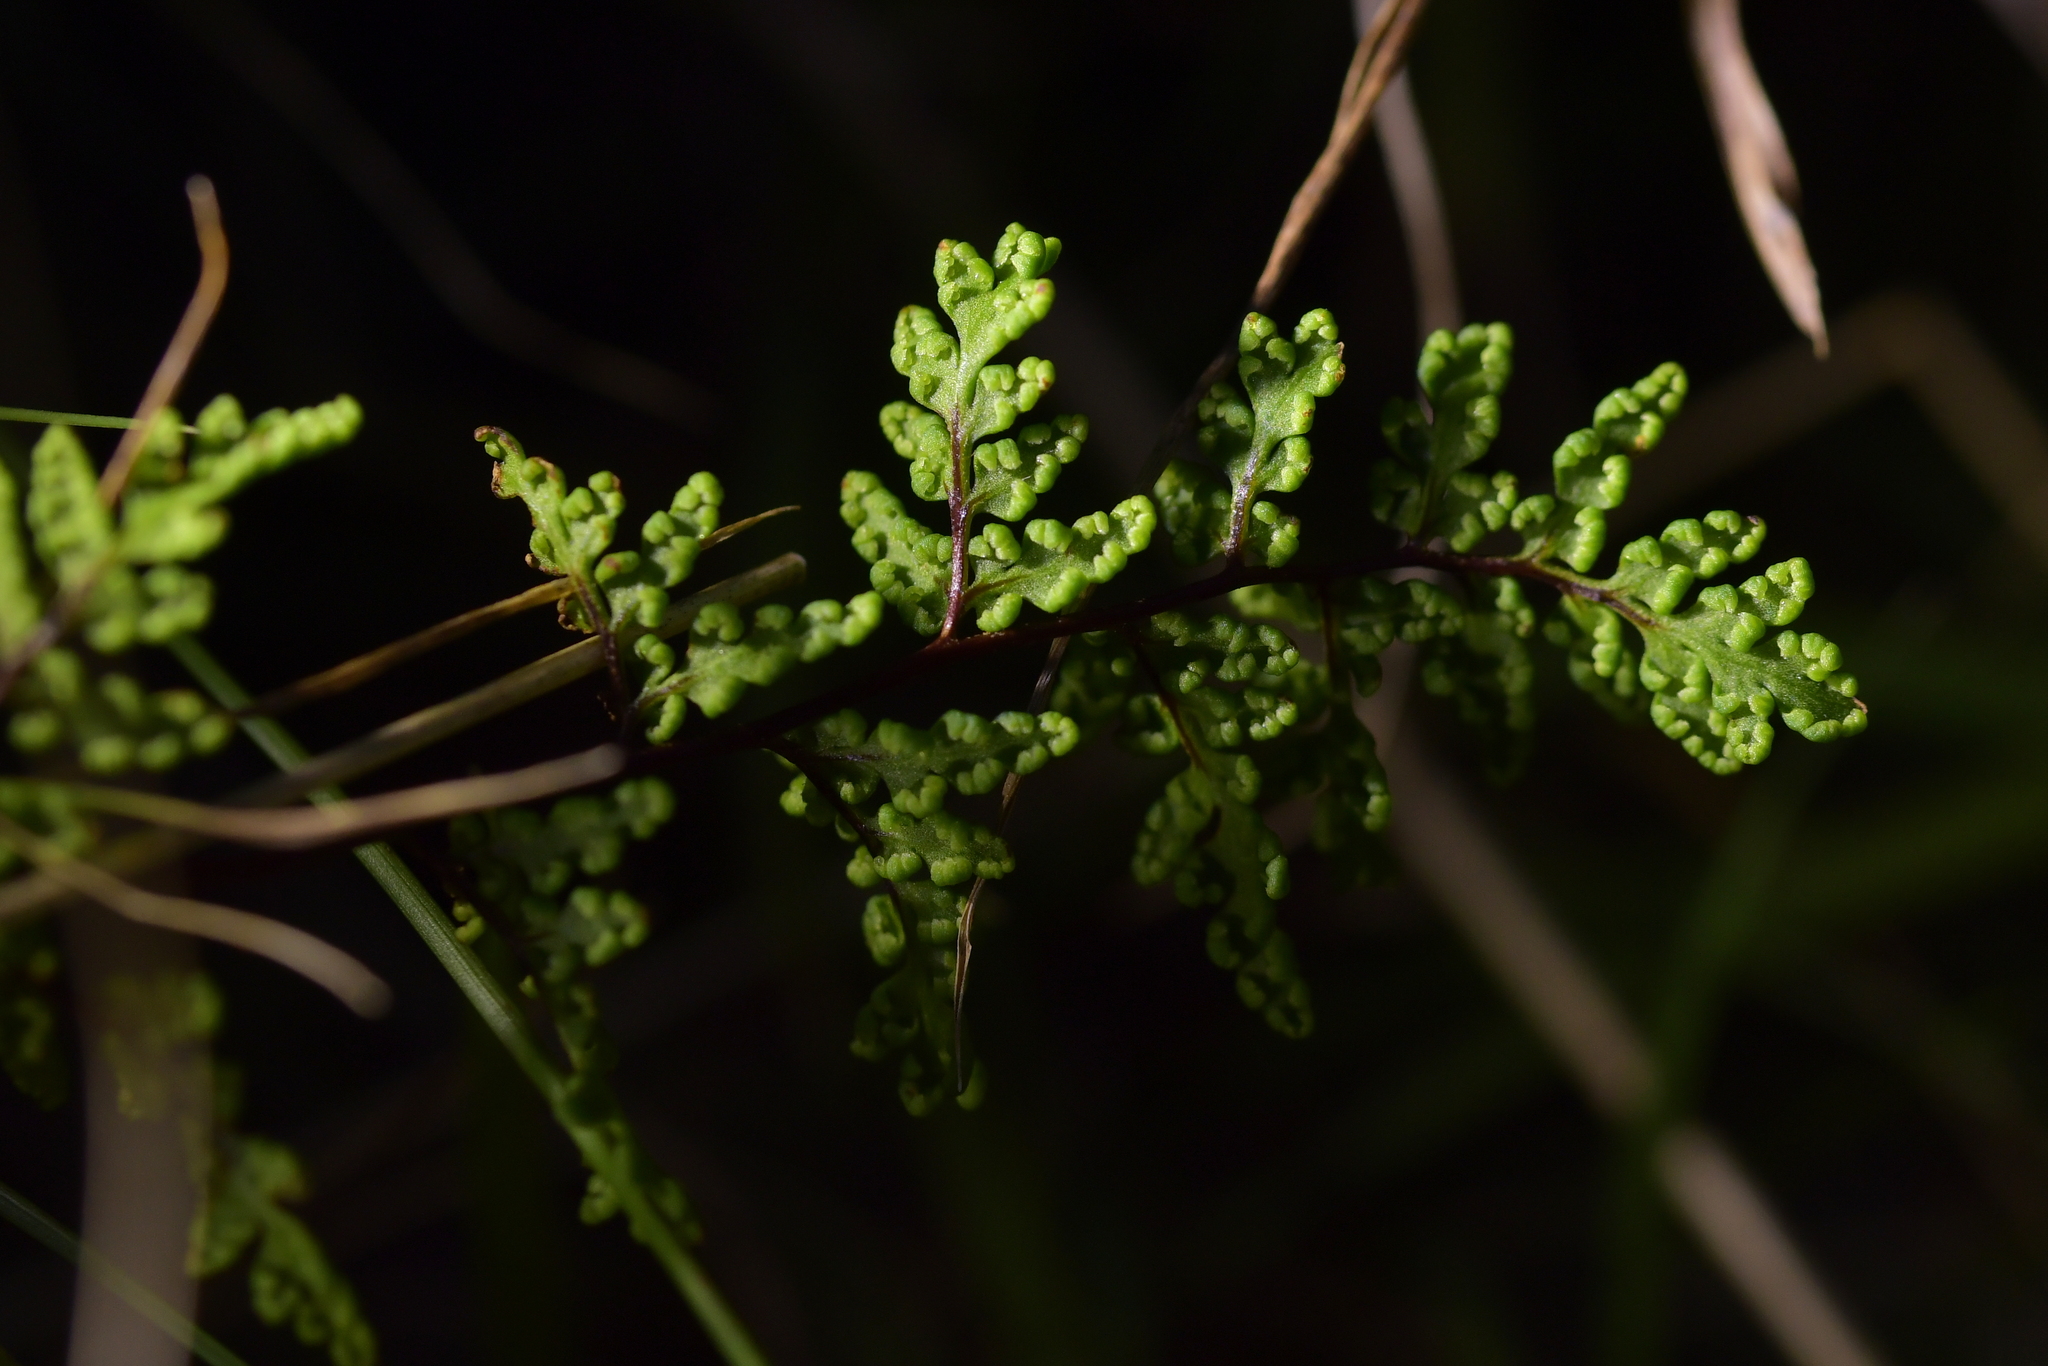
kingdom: Plantae
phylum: Tracheophyta
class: Polypodiopsida
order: Polypodiales
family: Pteridaceae
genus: Cheilanthes
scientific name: Cheilanthes sieberi
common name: Mulga fern
